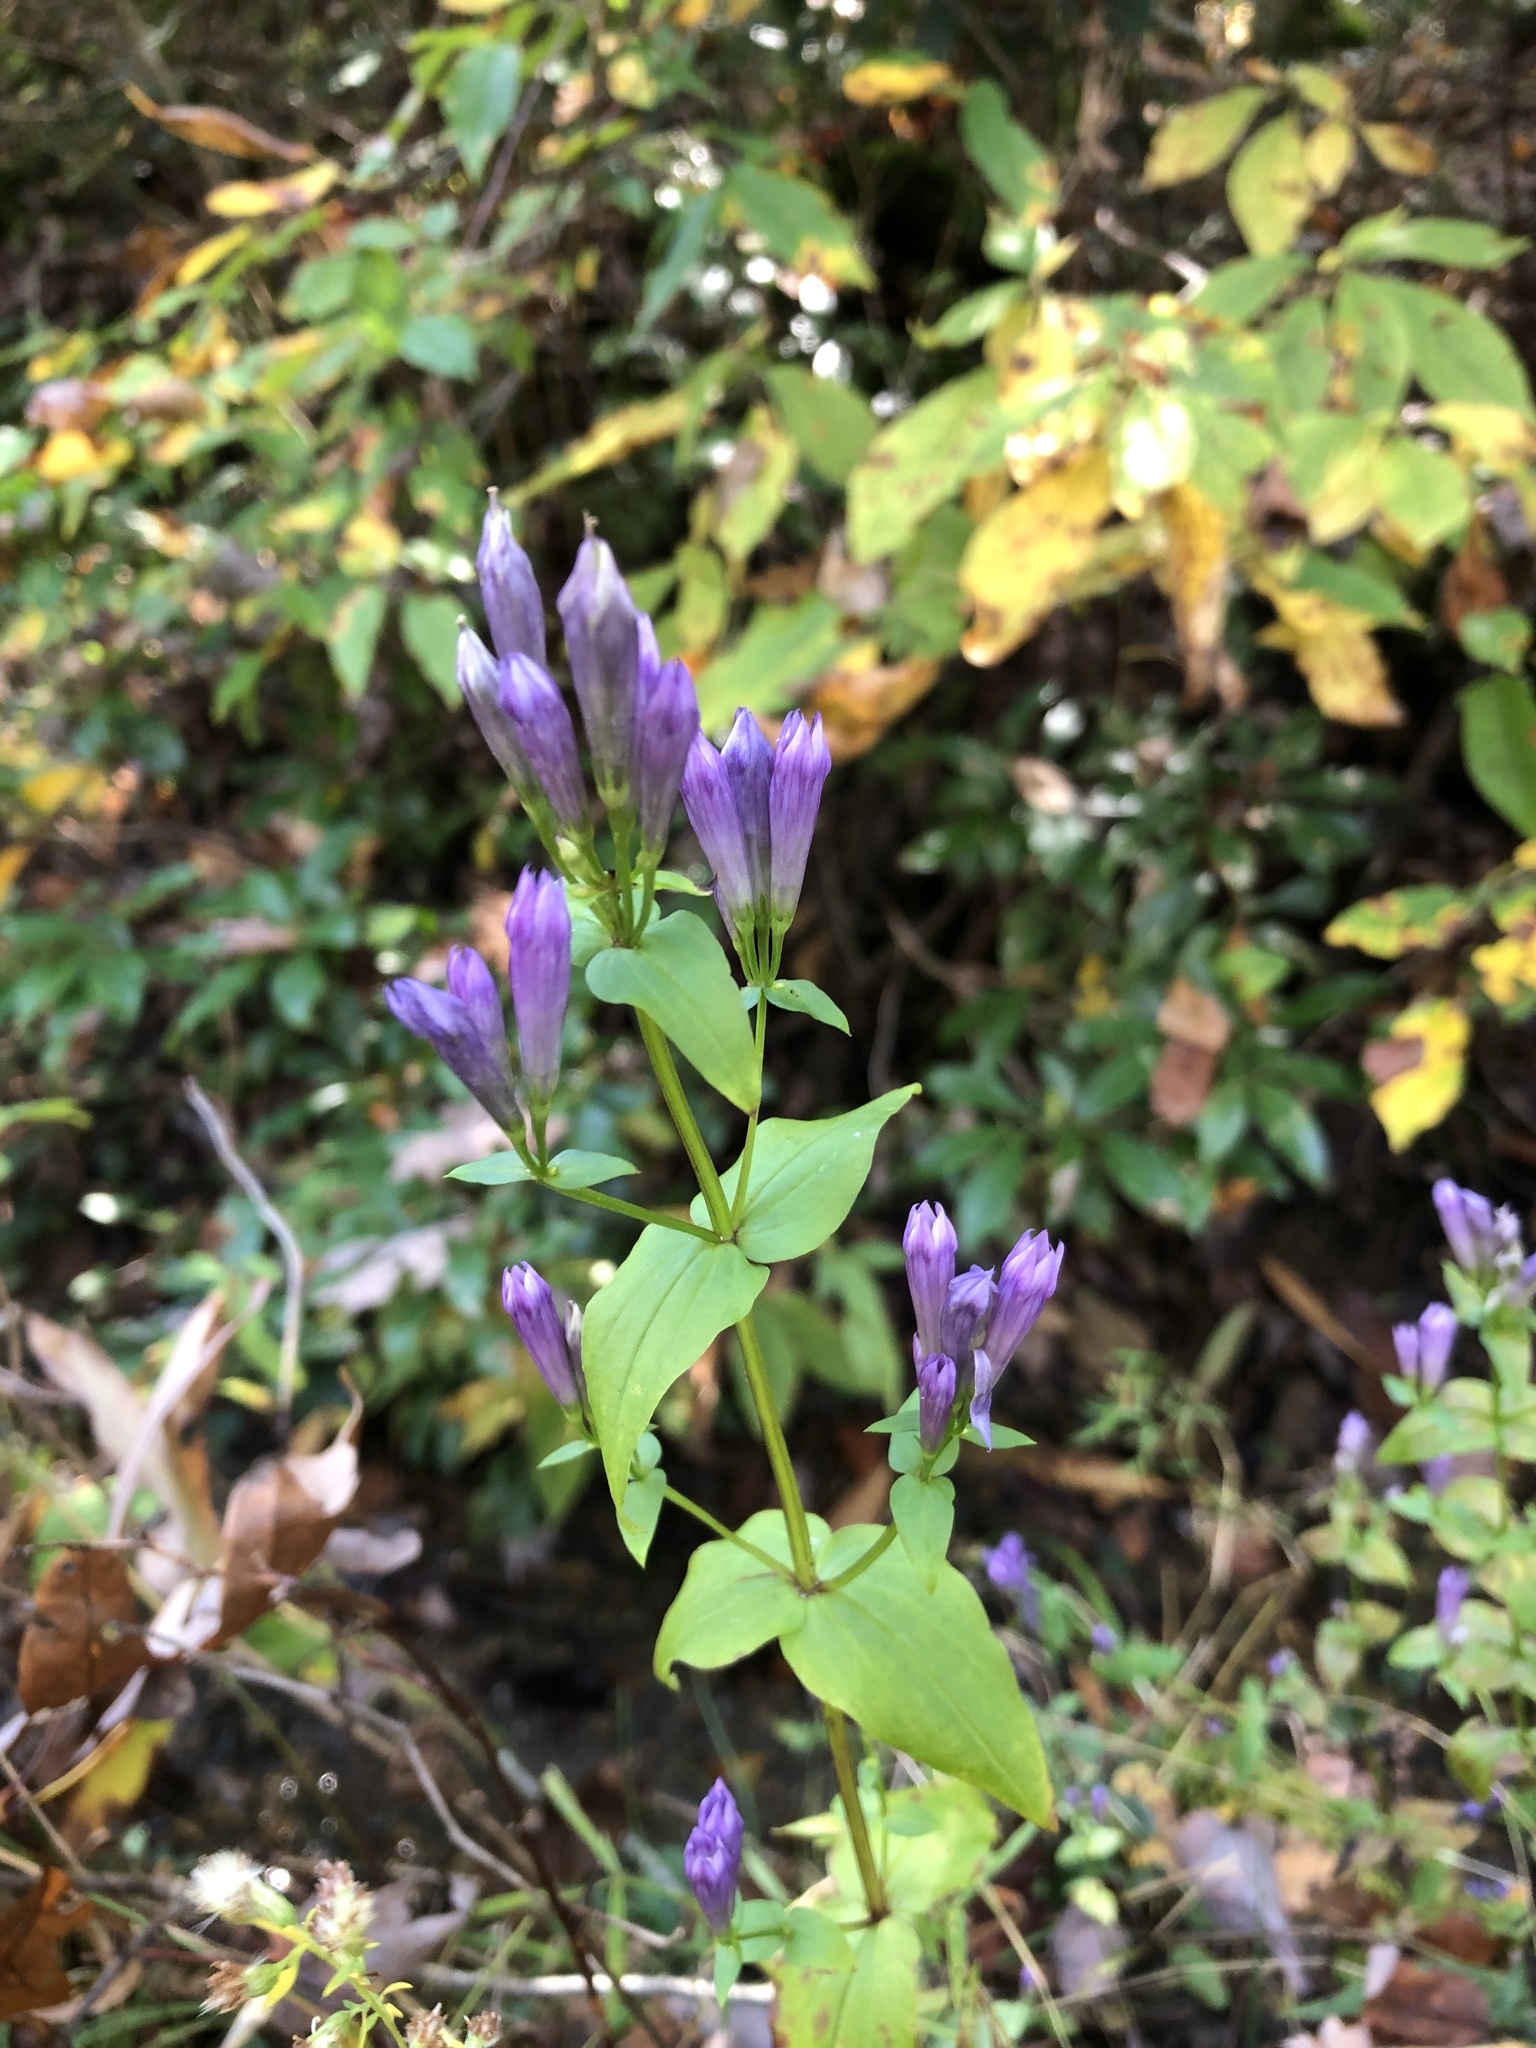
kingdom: Plantae
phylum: Tracheophyta
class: Magnoliopsida
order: Gentianales
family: Gentianaceae
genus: Gentianella
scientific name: Gentianella quinquefolia
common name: Agueweed
